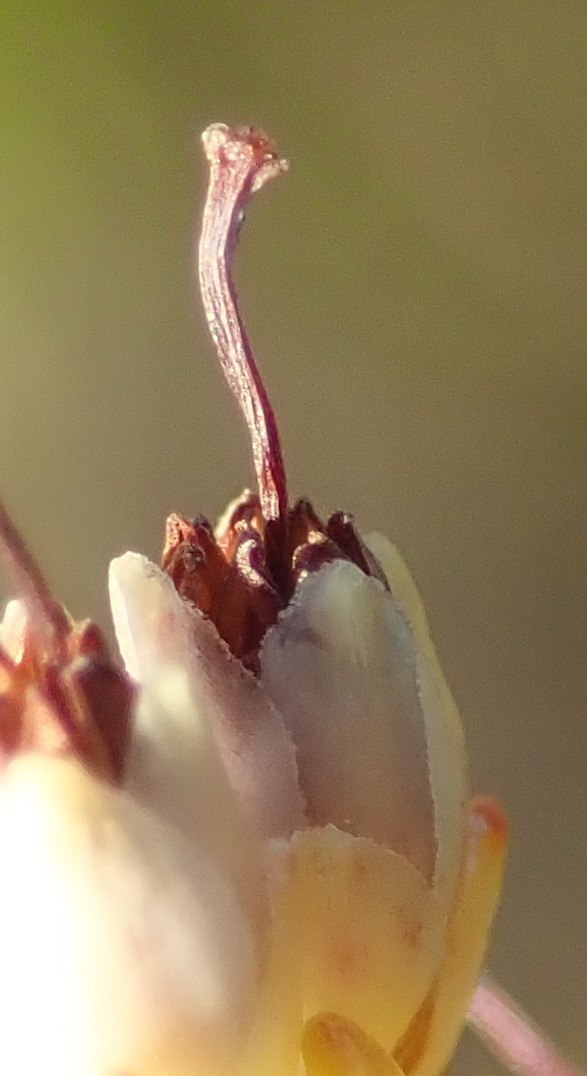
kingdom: Plantae
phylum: Tracheophyta
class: Magnoliopsida
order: Ericales
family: Ericaceae
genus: Erica
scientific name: Erica lasciva
